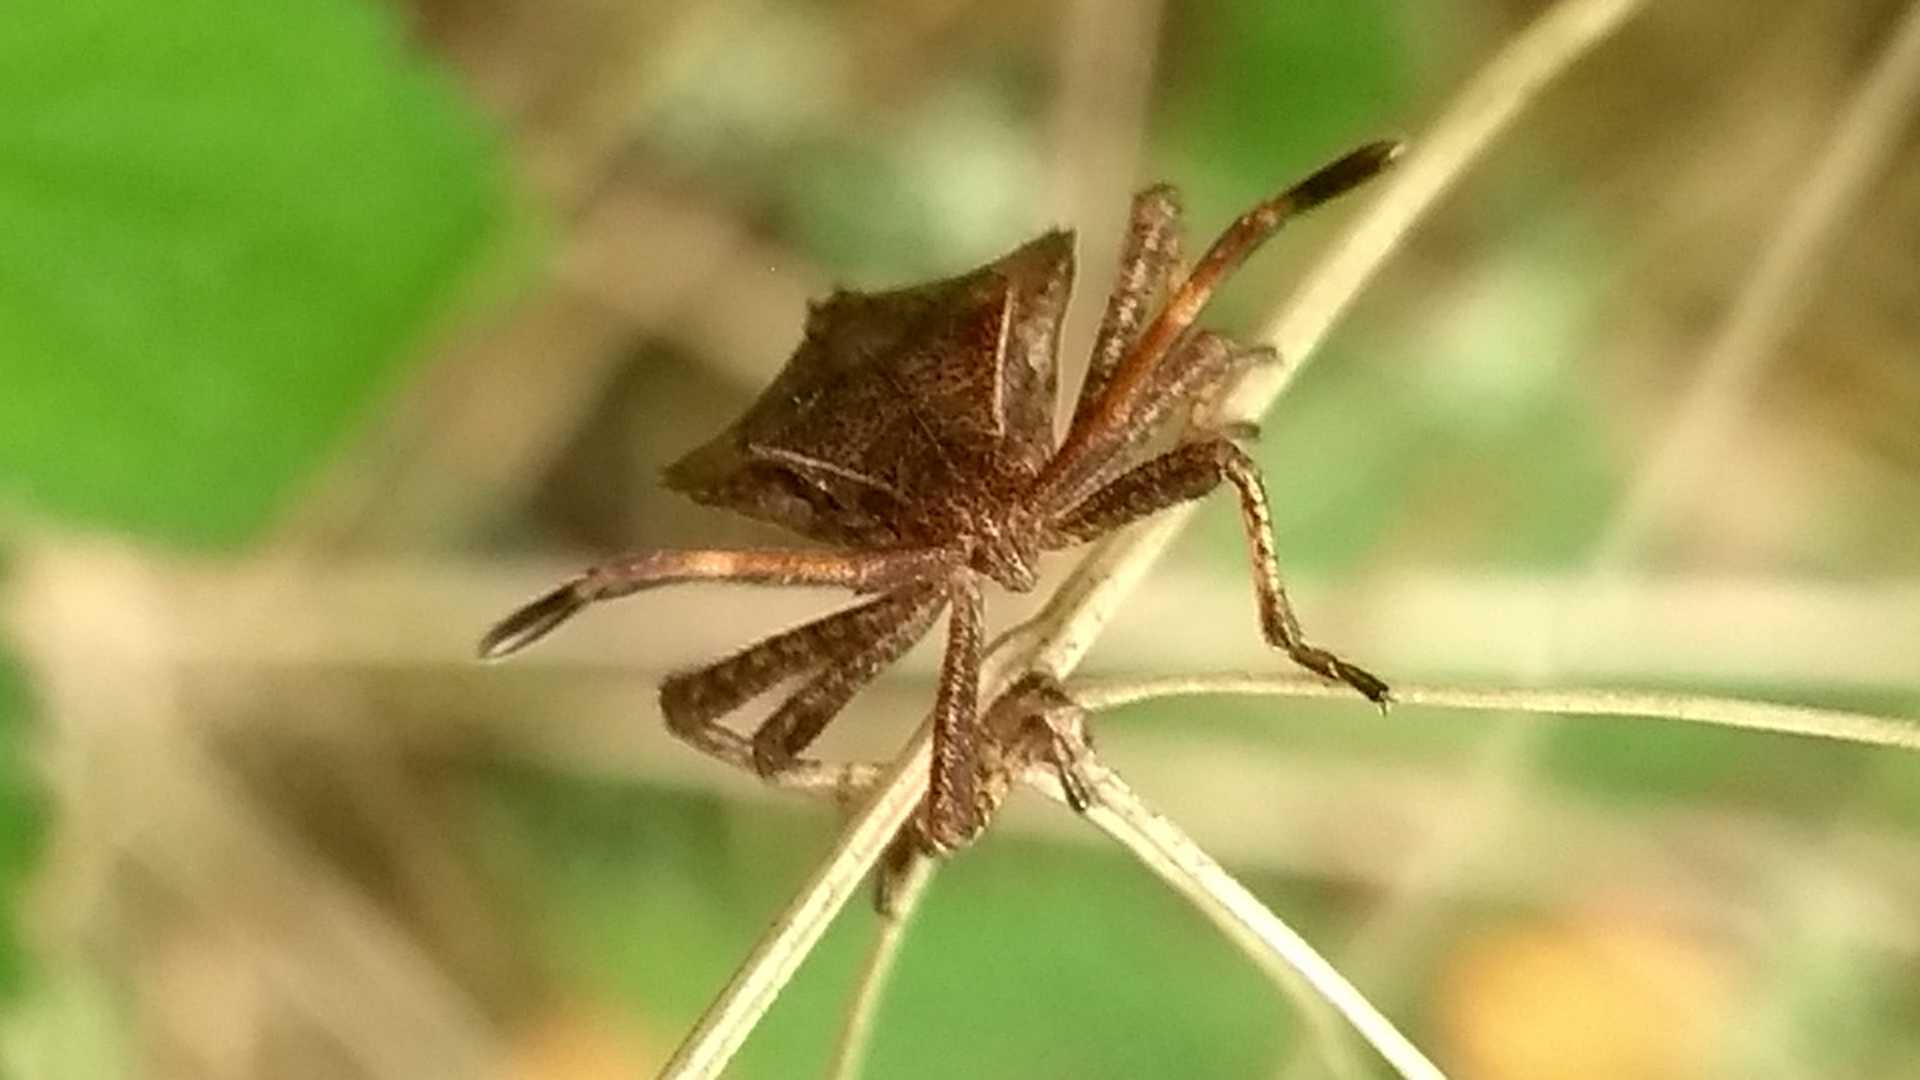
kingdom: Animalia
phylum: Arthropoda
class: Insecta
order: Hemiptera
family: Coreidae
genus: Coreus
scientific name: Coreus marginatus
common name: Dock bug
